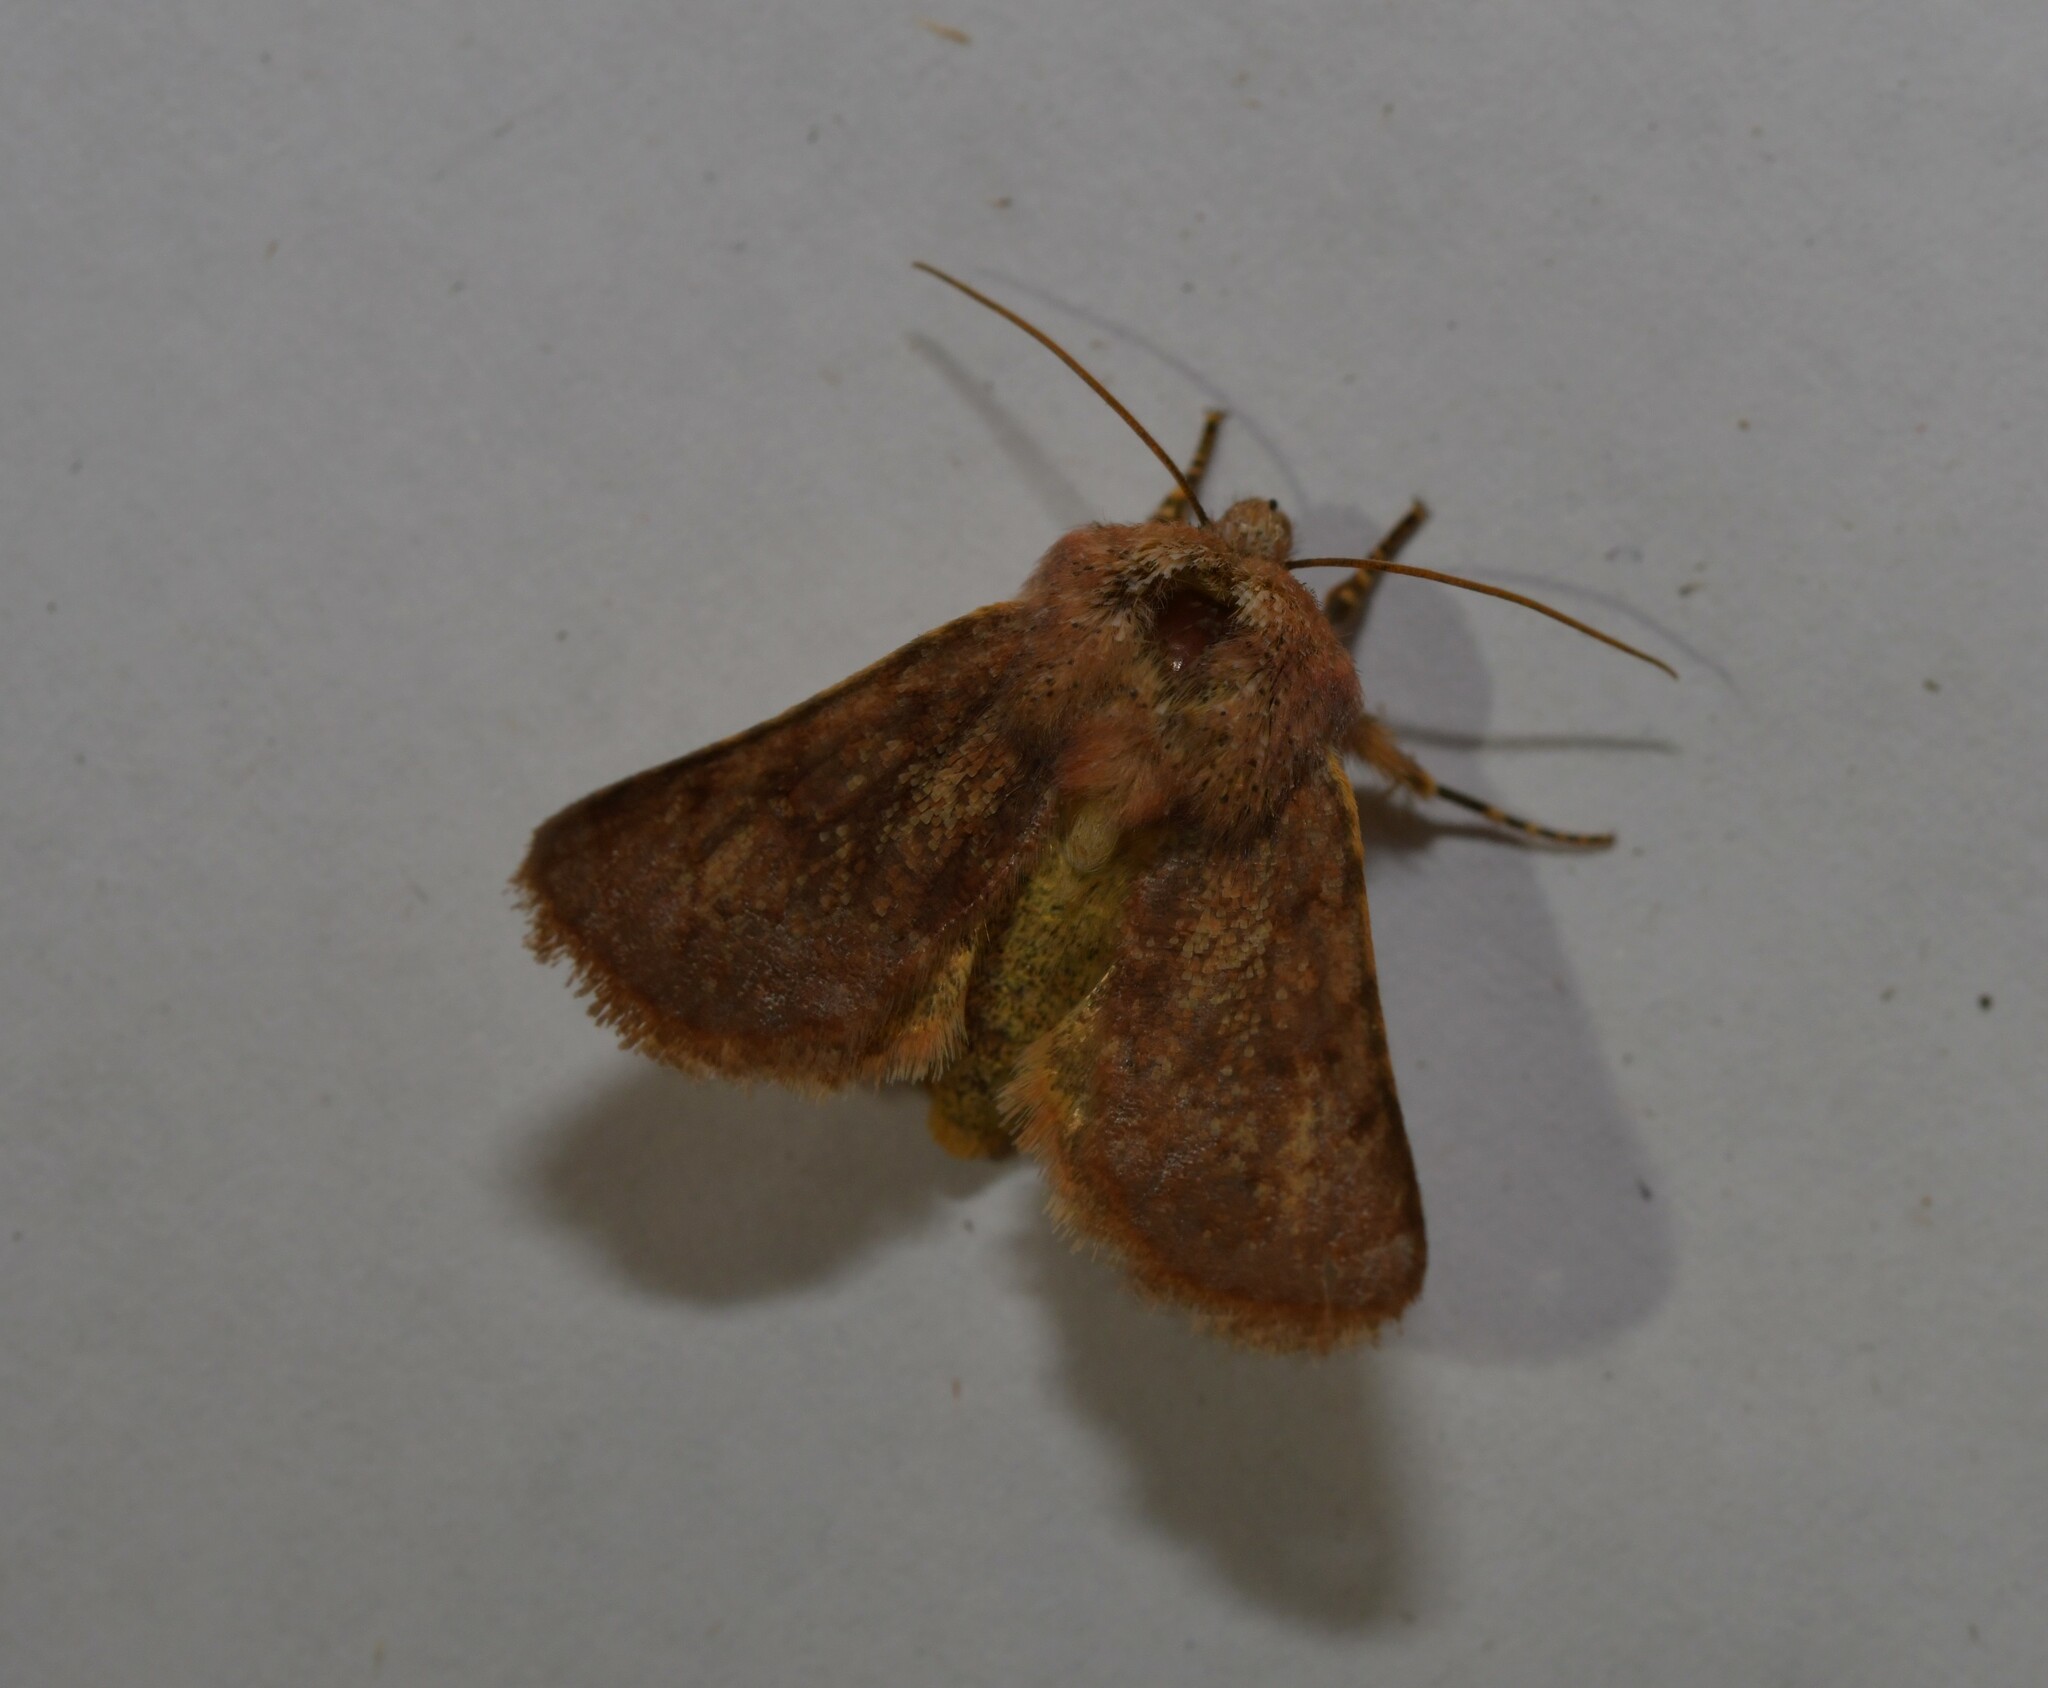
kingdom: Animalia
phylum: Arthropoda
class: Insecta
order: Lepidoptera
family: Noctuidae
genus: Metopoceras
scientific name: Metopoceras felicina
